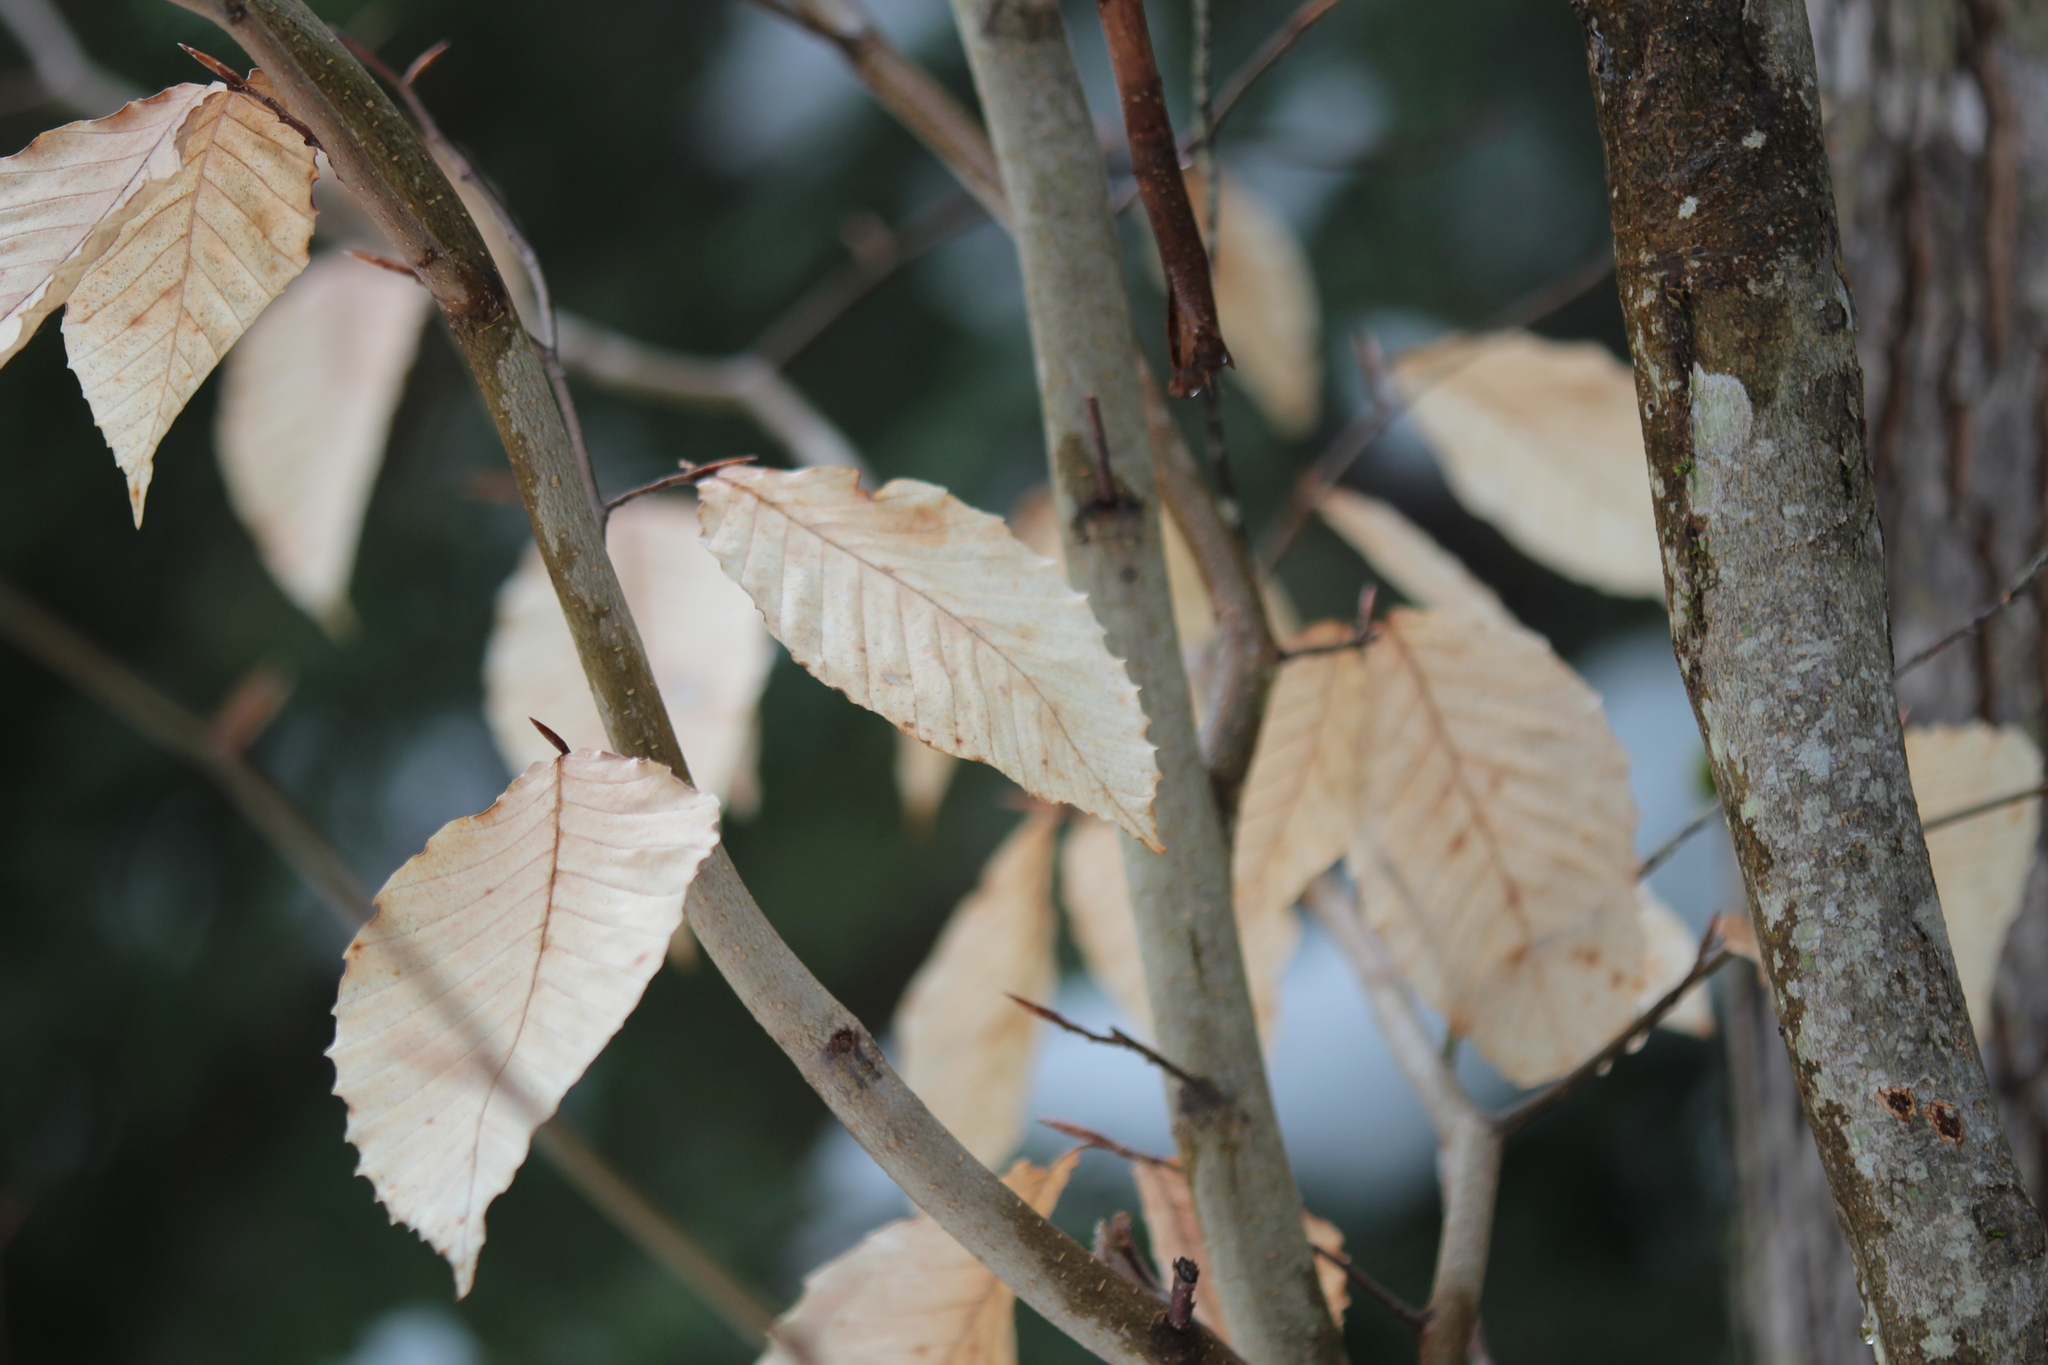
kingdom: Plantae
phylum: Tracheophyta
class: Magnoliopsida
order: Fagales
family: Fagaceae
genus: Fagus
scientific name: Fagus grandifolia
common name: American beech
